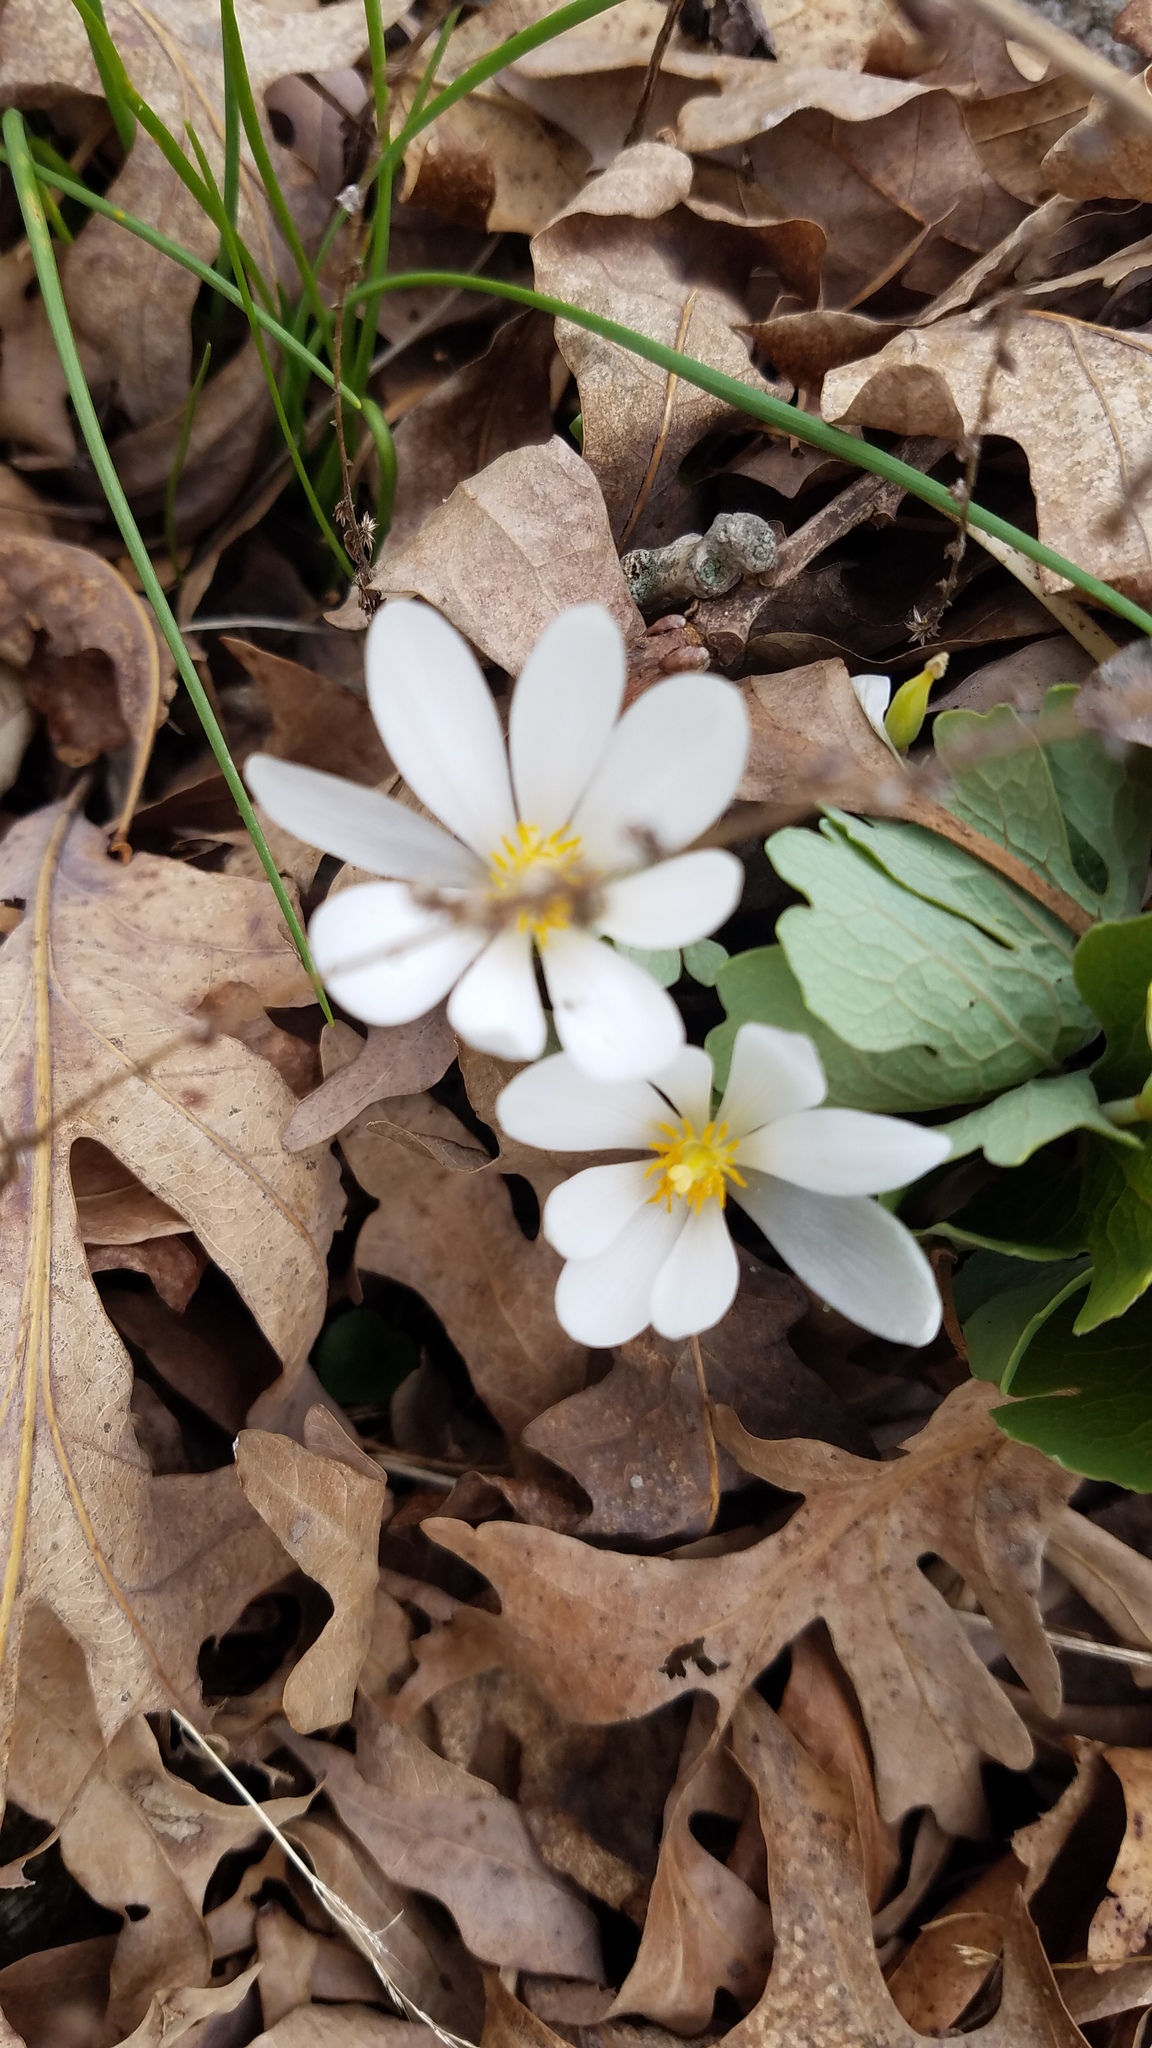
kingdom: Plantae
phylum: Tracheophyta
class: Magnoliopsida
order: Ranunculales
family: Papaveraceae
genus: Sanguinaria
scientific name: Sanguinaria canadensis
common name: Bloodroot
